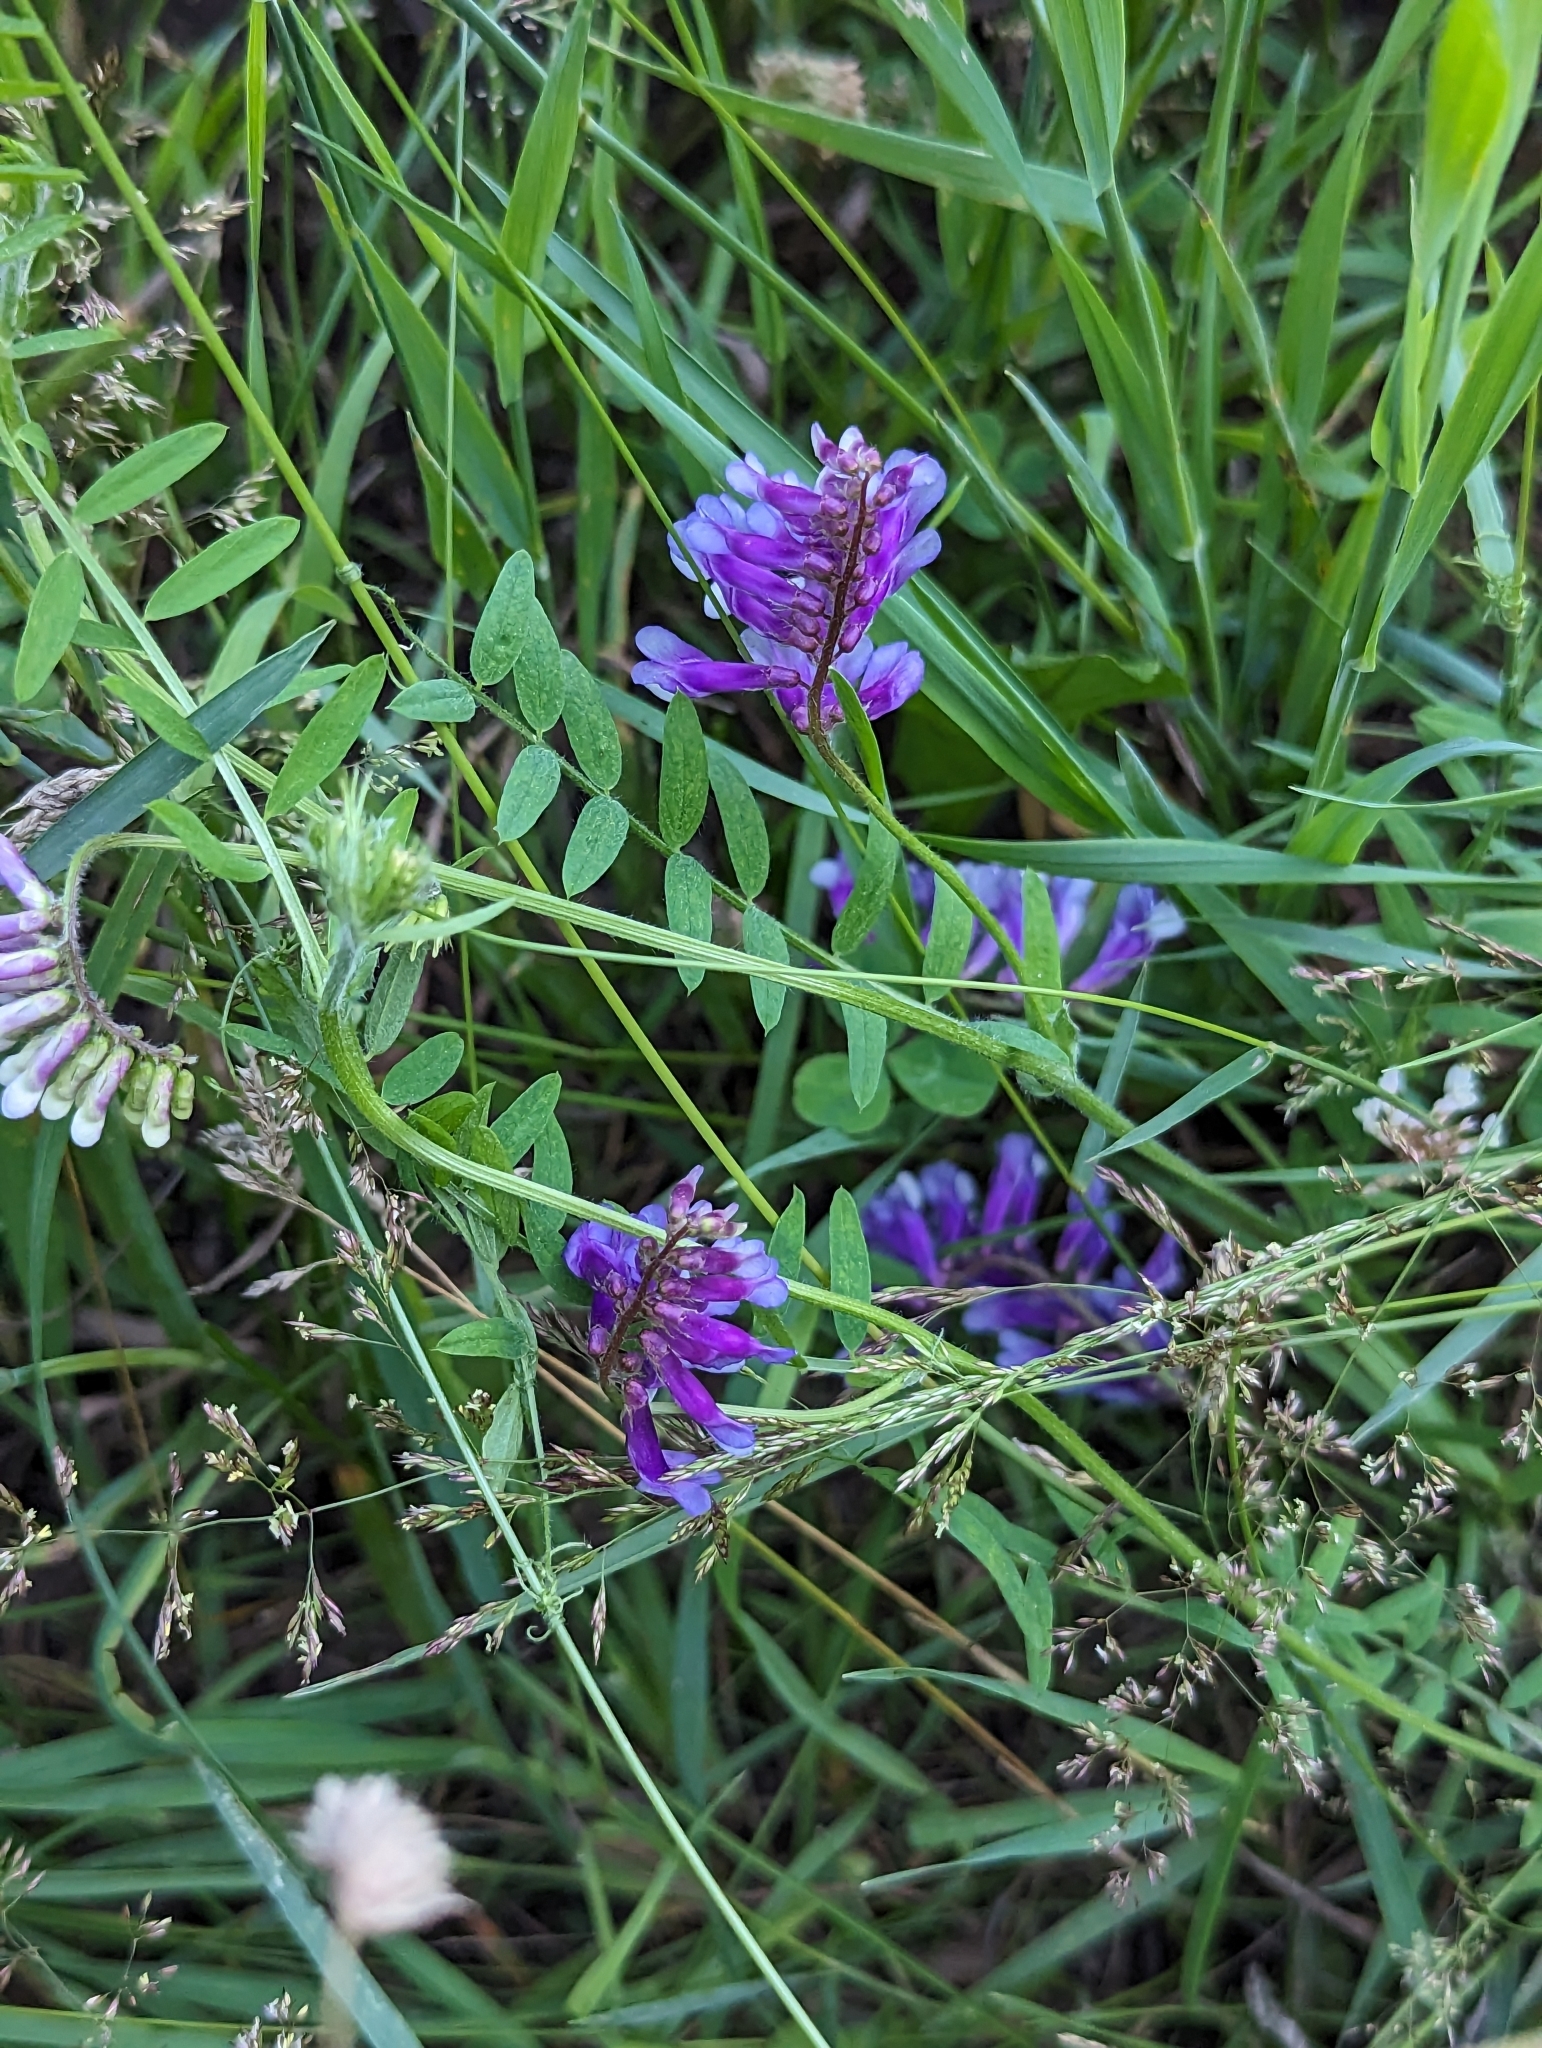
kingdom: Plantae
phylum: Tracheophyta
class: Magnoliopsida
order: Fabales
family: Fabaceae
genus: Vicia
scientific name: Vicia villosa
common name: Fodder vetch
